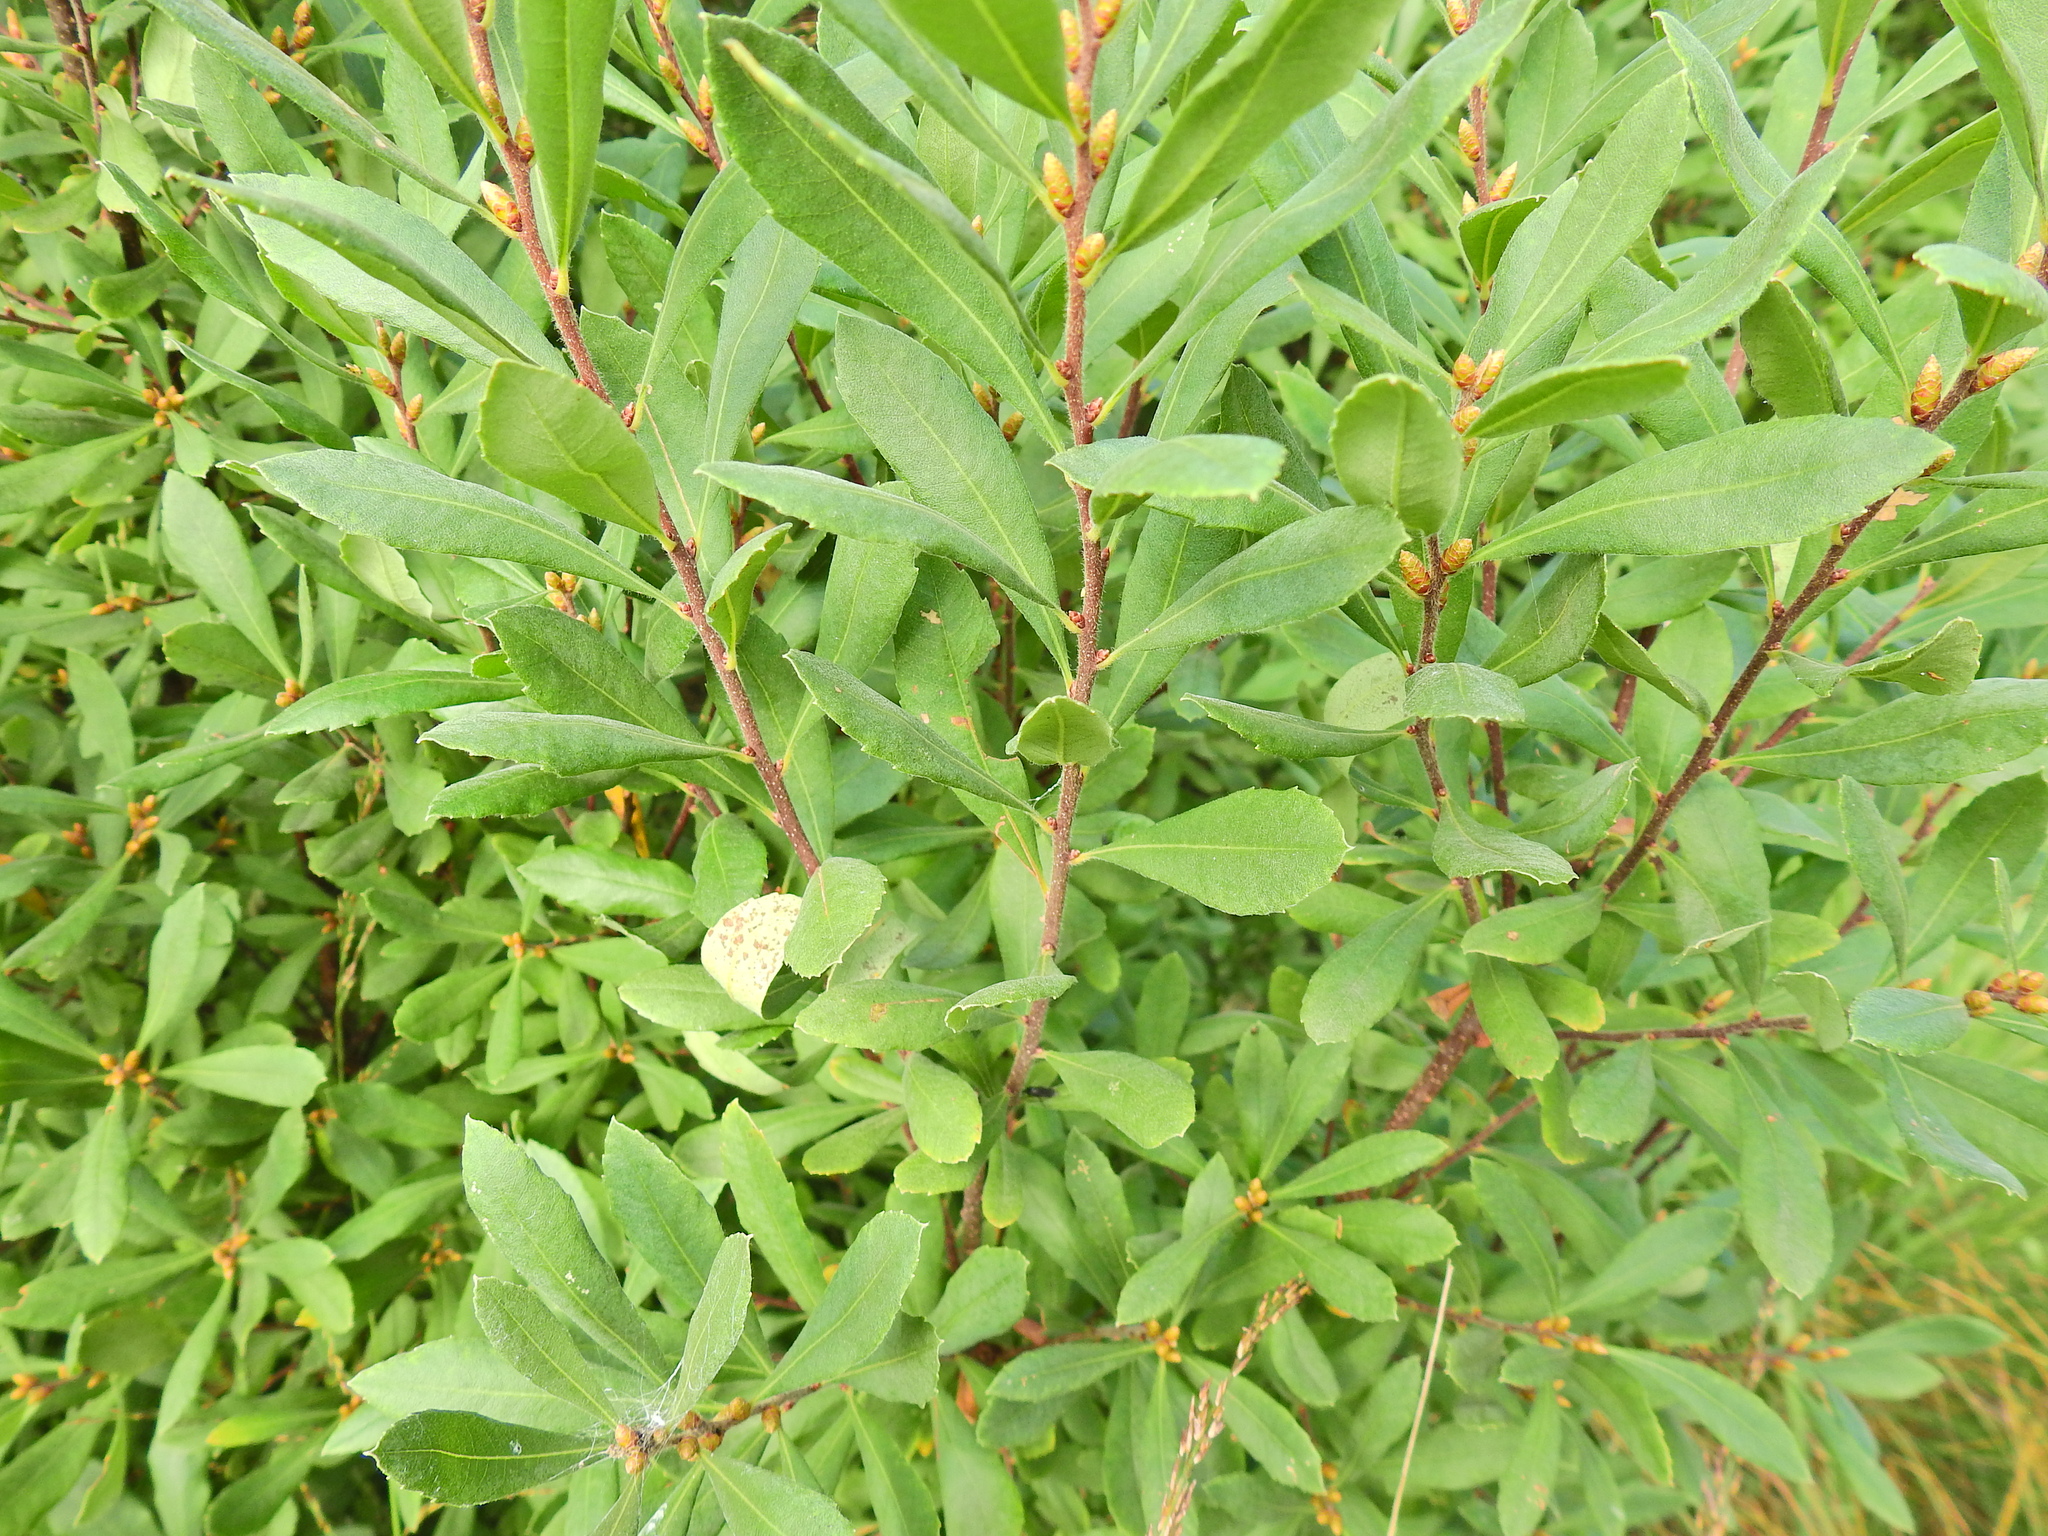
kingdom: Plantae
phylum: Tracheophyta
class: Magnoliopsida
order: Fagales
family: Myricaceae
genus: Myrica
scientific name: Myrica gale
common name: Sweet gale
